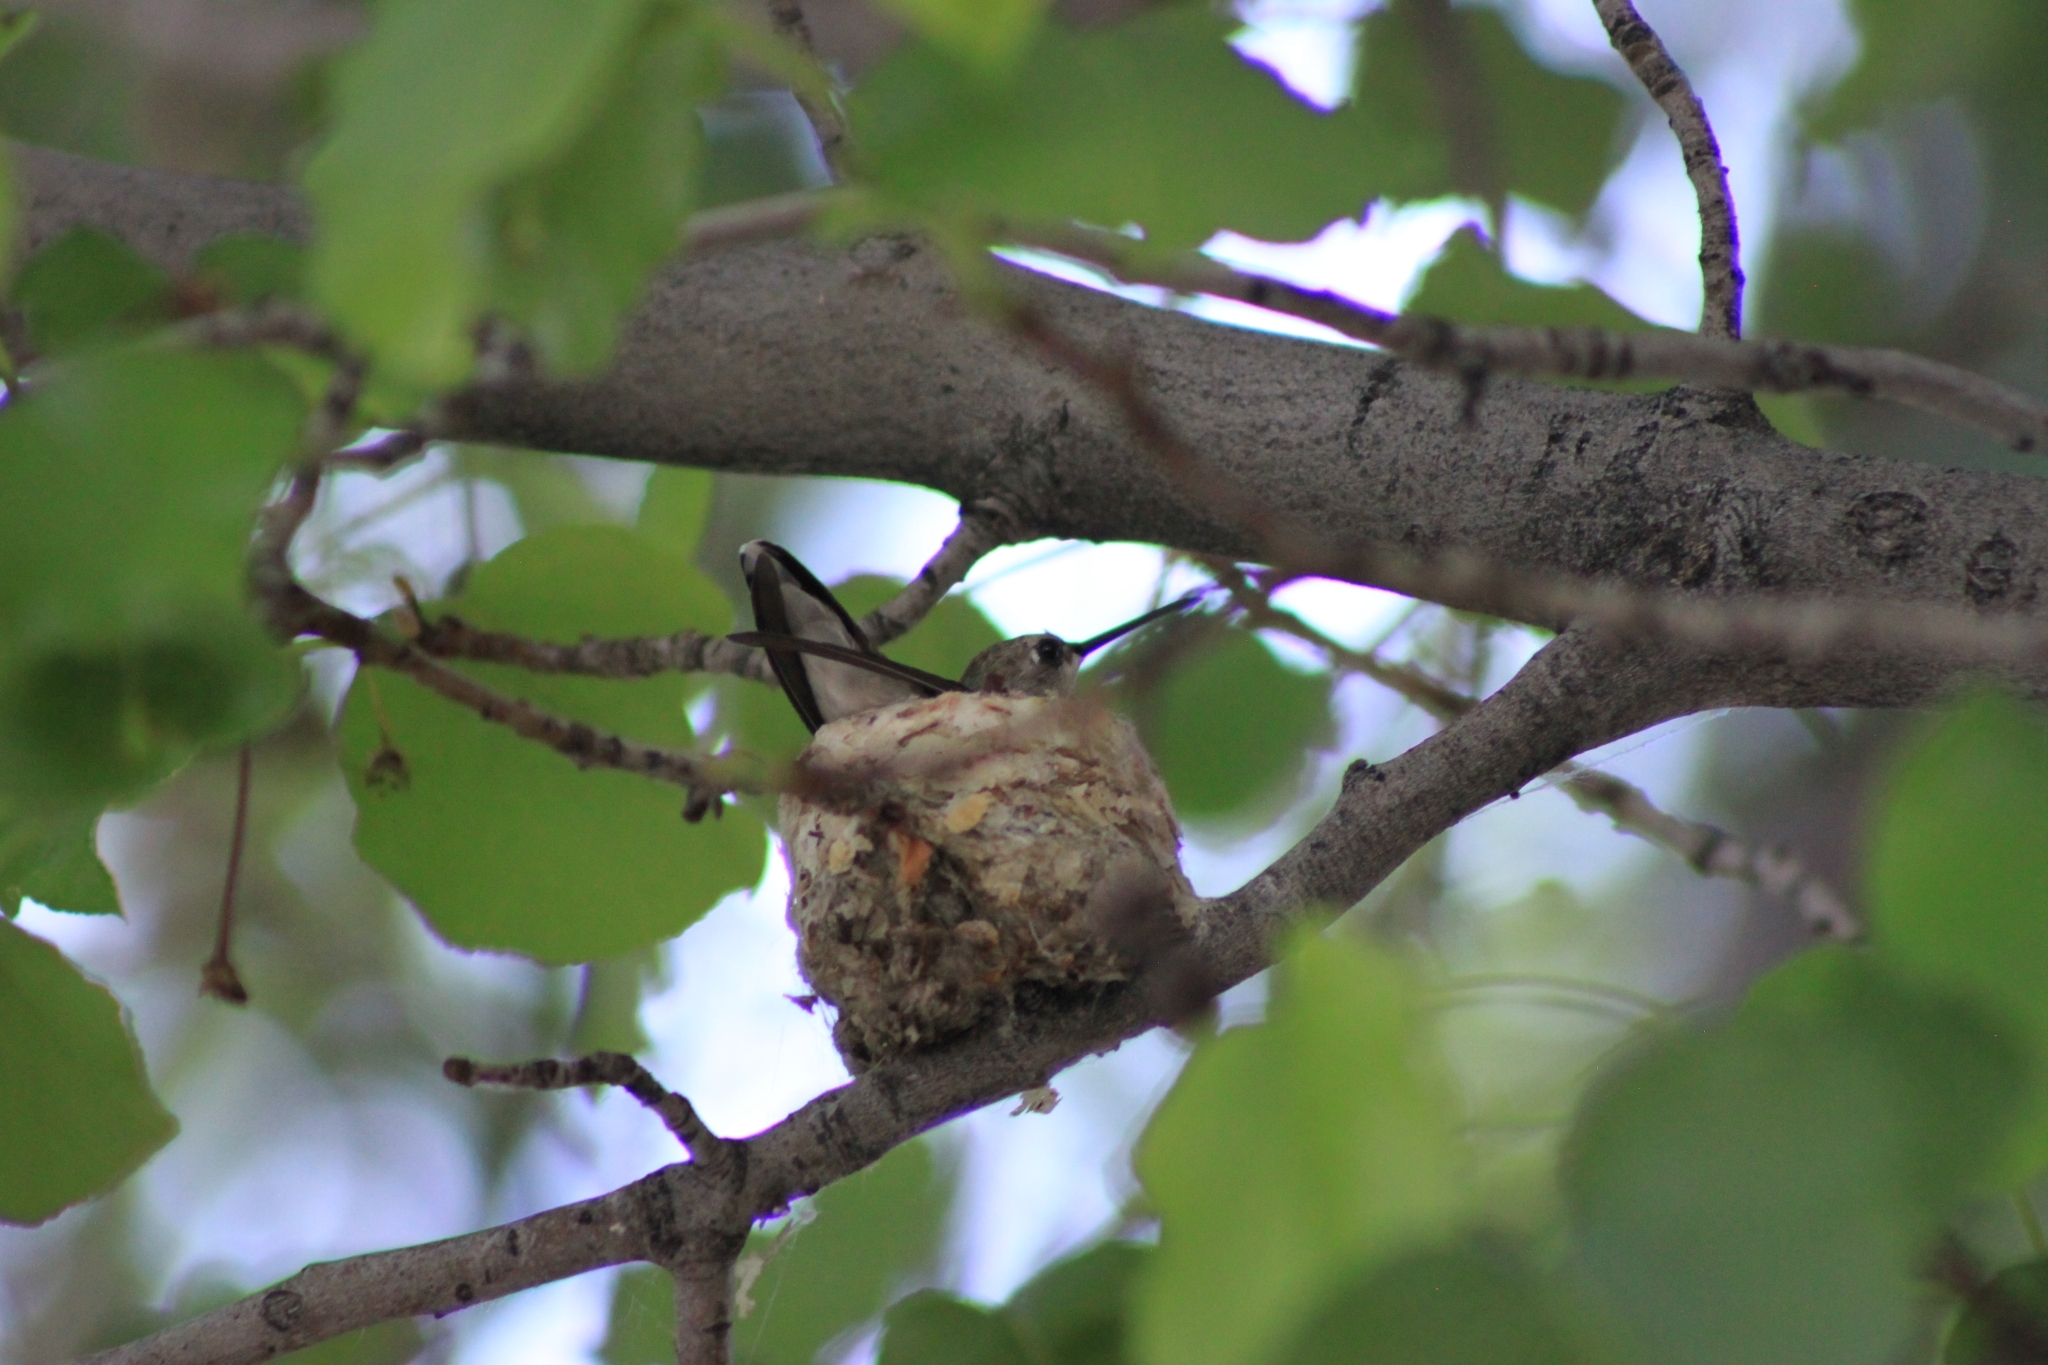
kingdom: Animalia
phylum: Chordata
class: Aves
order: Apodiformes
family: Trochilidae
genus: Archilochus
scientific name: Archilochus alexandri
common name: Black-chinned hummingbird
